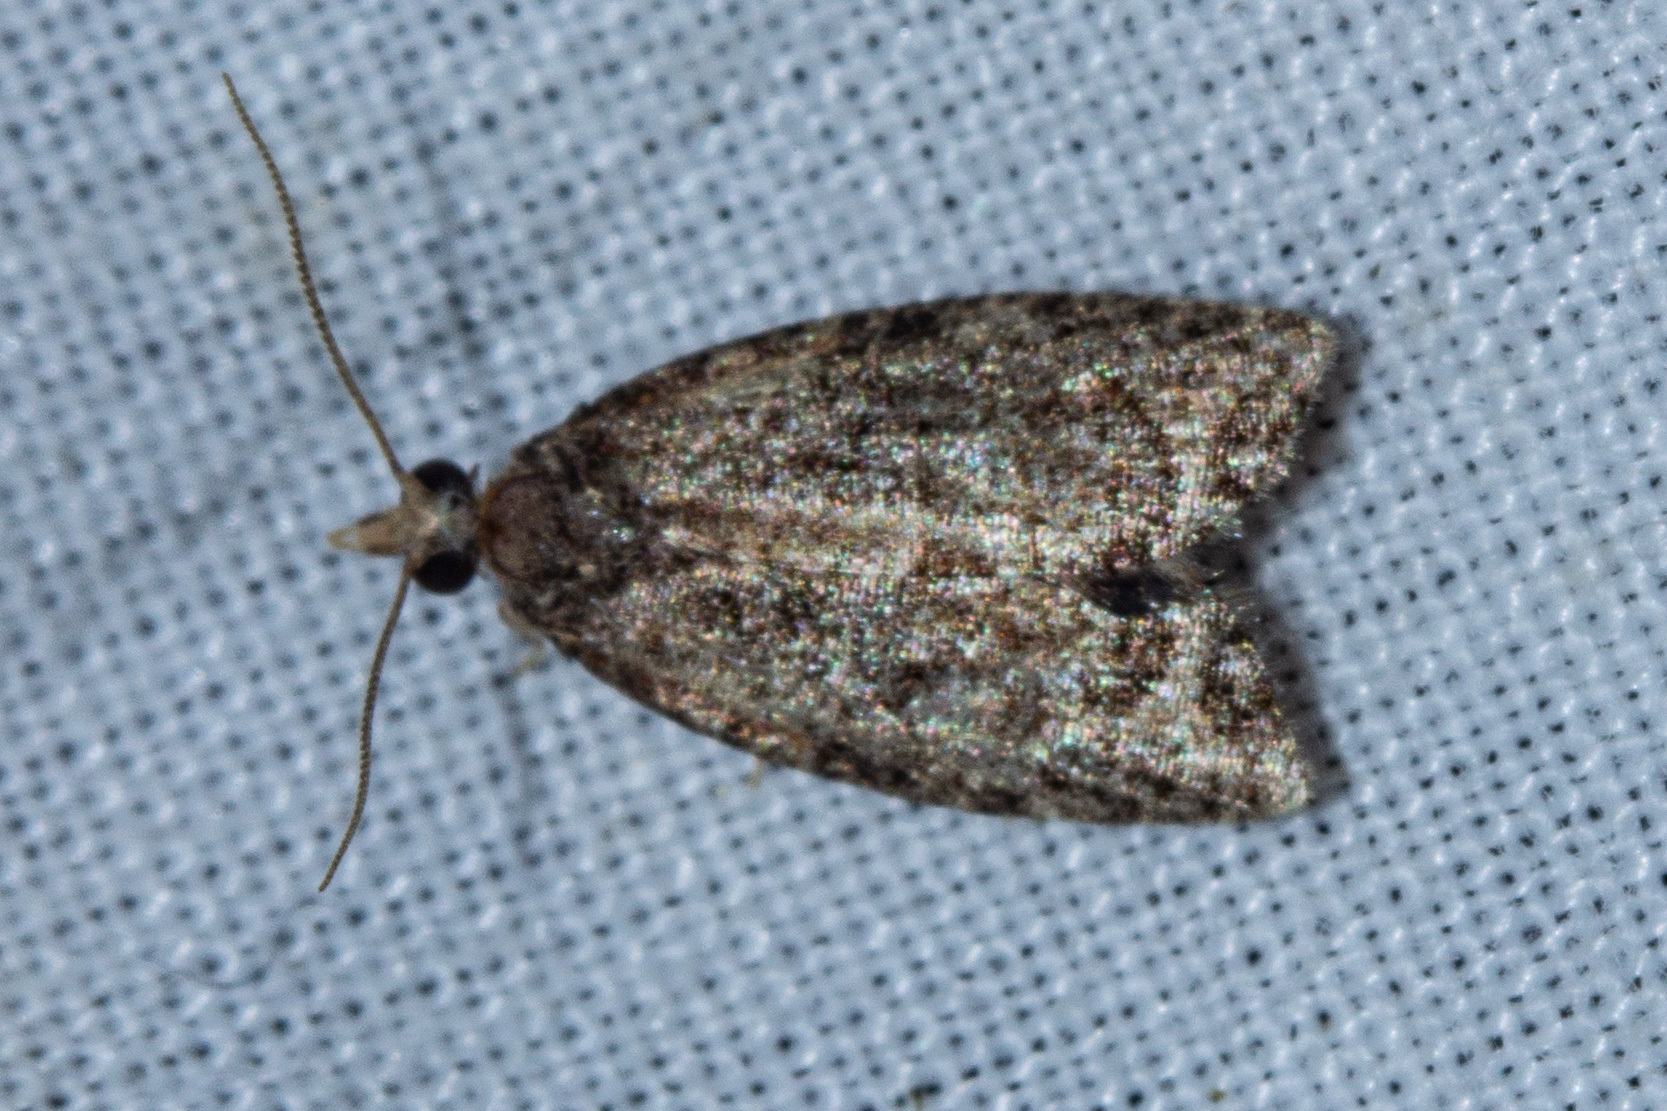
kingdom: Animalia
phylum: Arthropoda
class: Insecta
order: Lepidoptera
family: Tortricidae
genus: Capua
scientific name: Capua intractana
